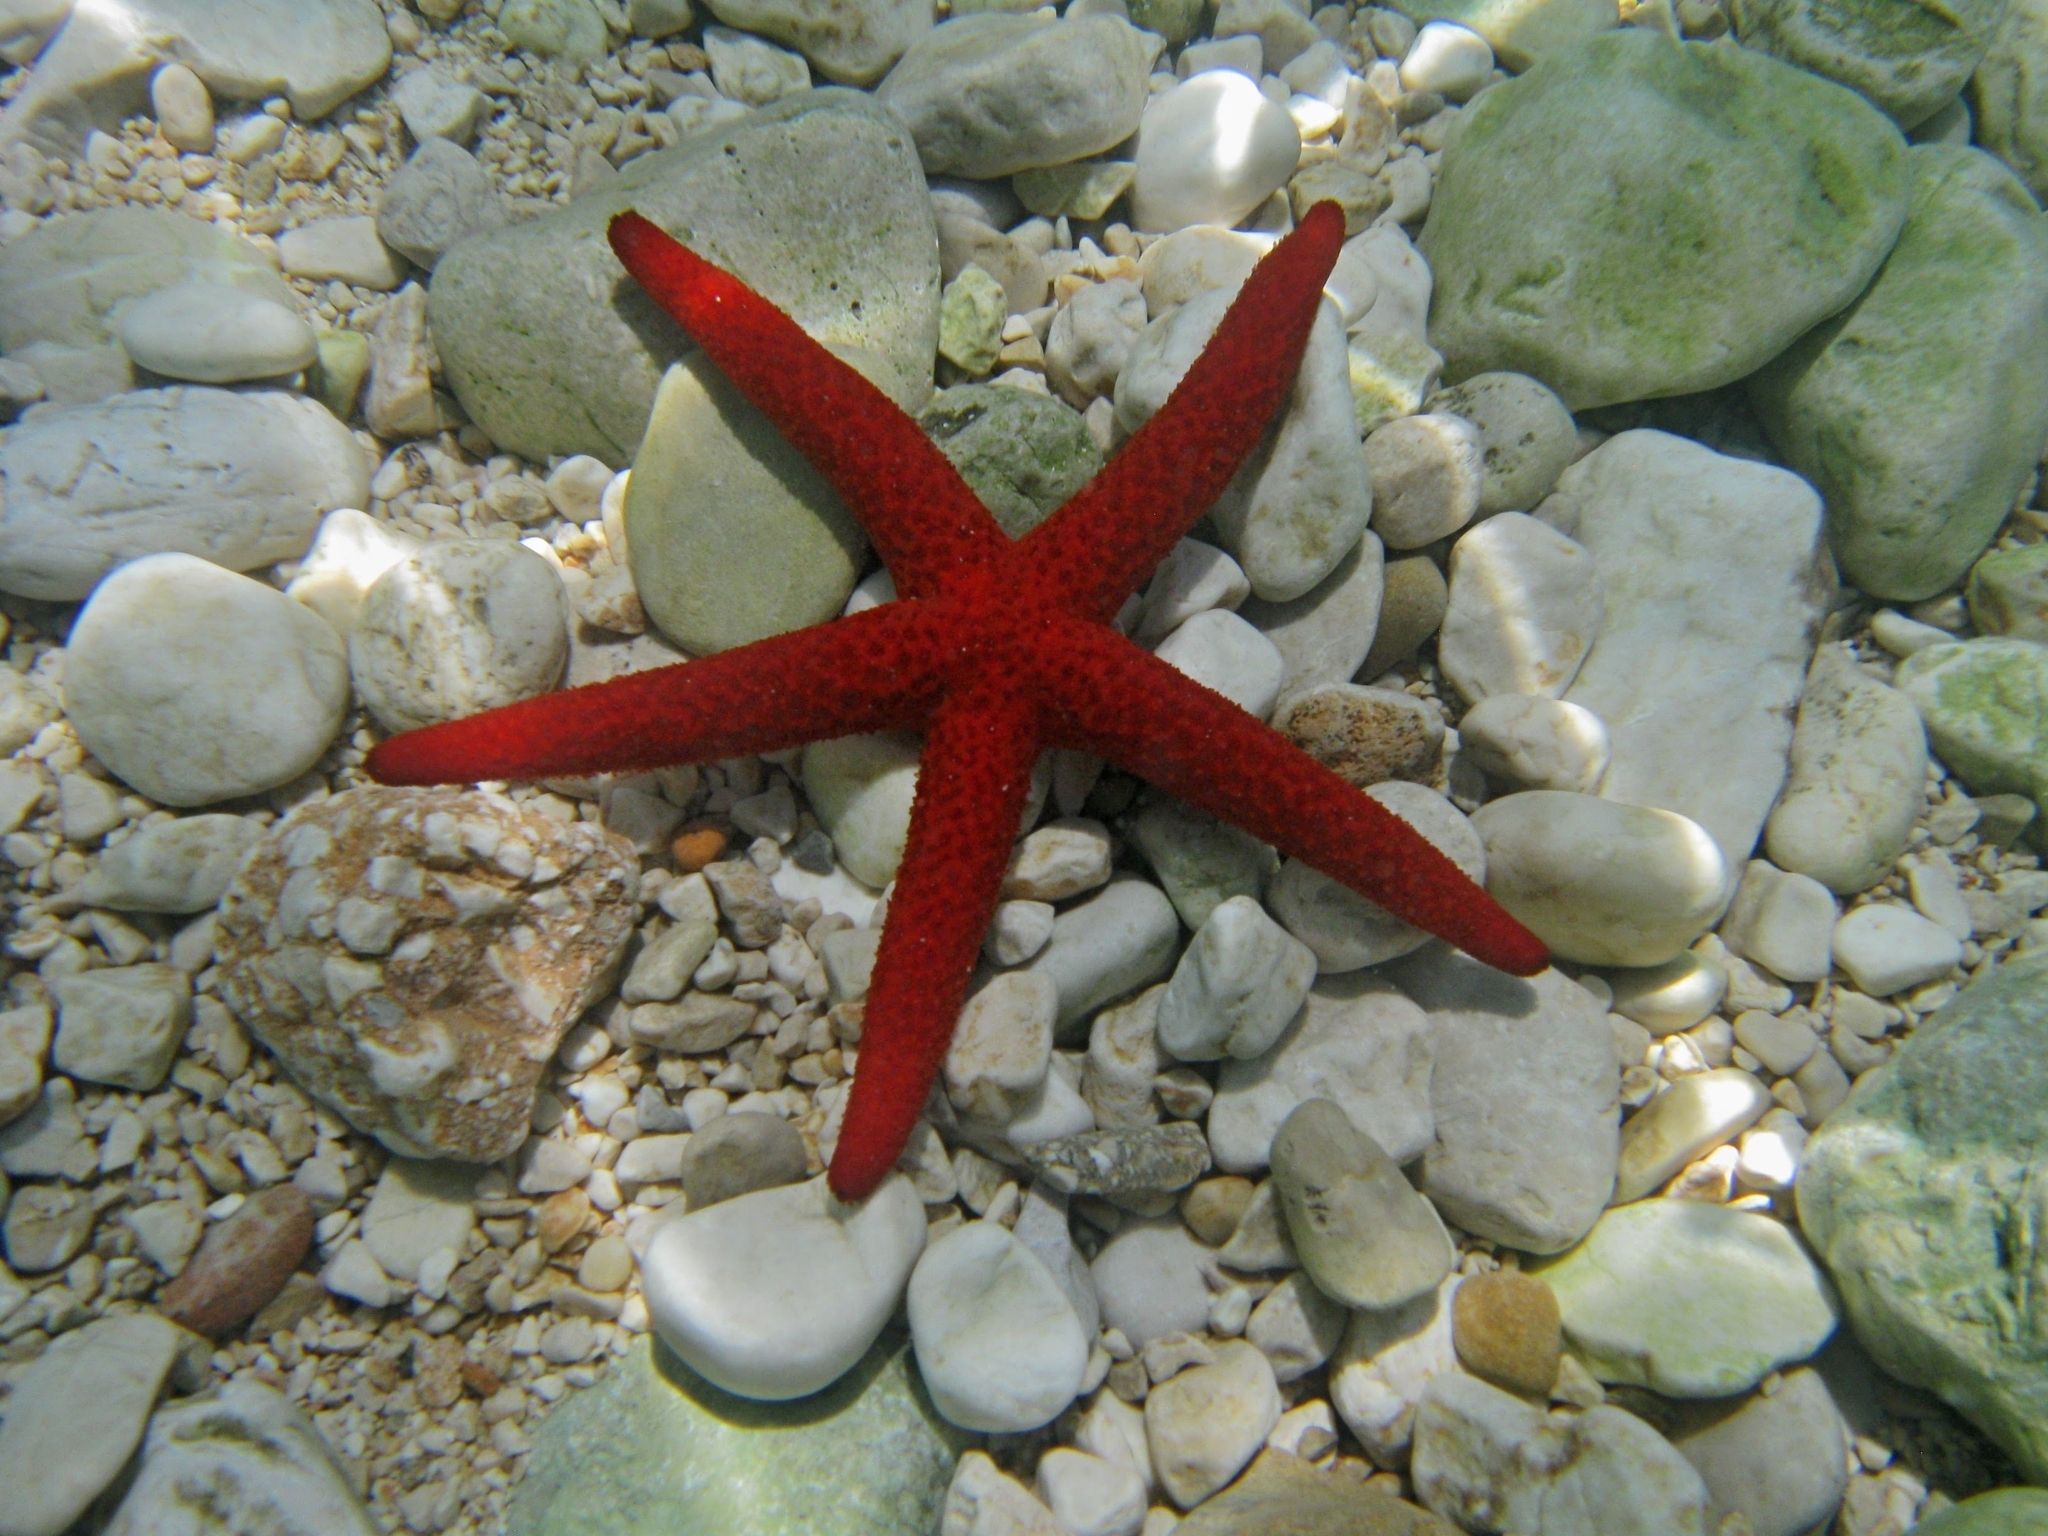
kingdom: Animalia
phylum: Echinodermata
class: Asteroidea
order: Spinulosida
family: Echinasteridae
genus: Echinaster
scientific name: Echinaster sepositus
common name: Red starfish
